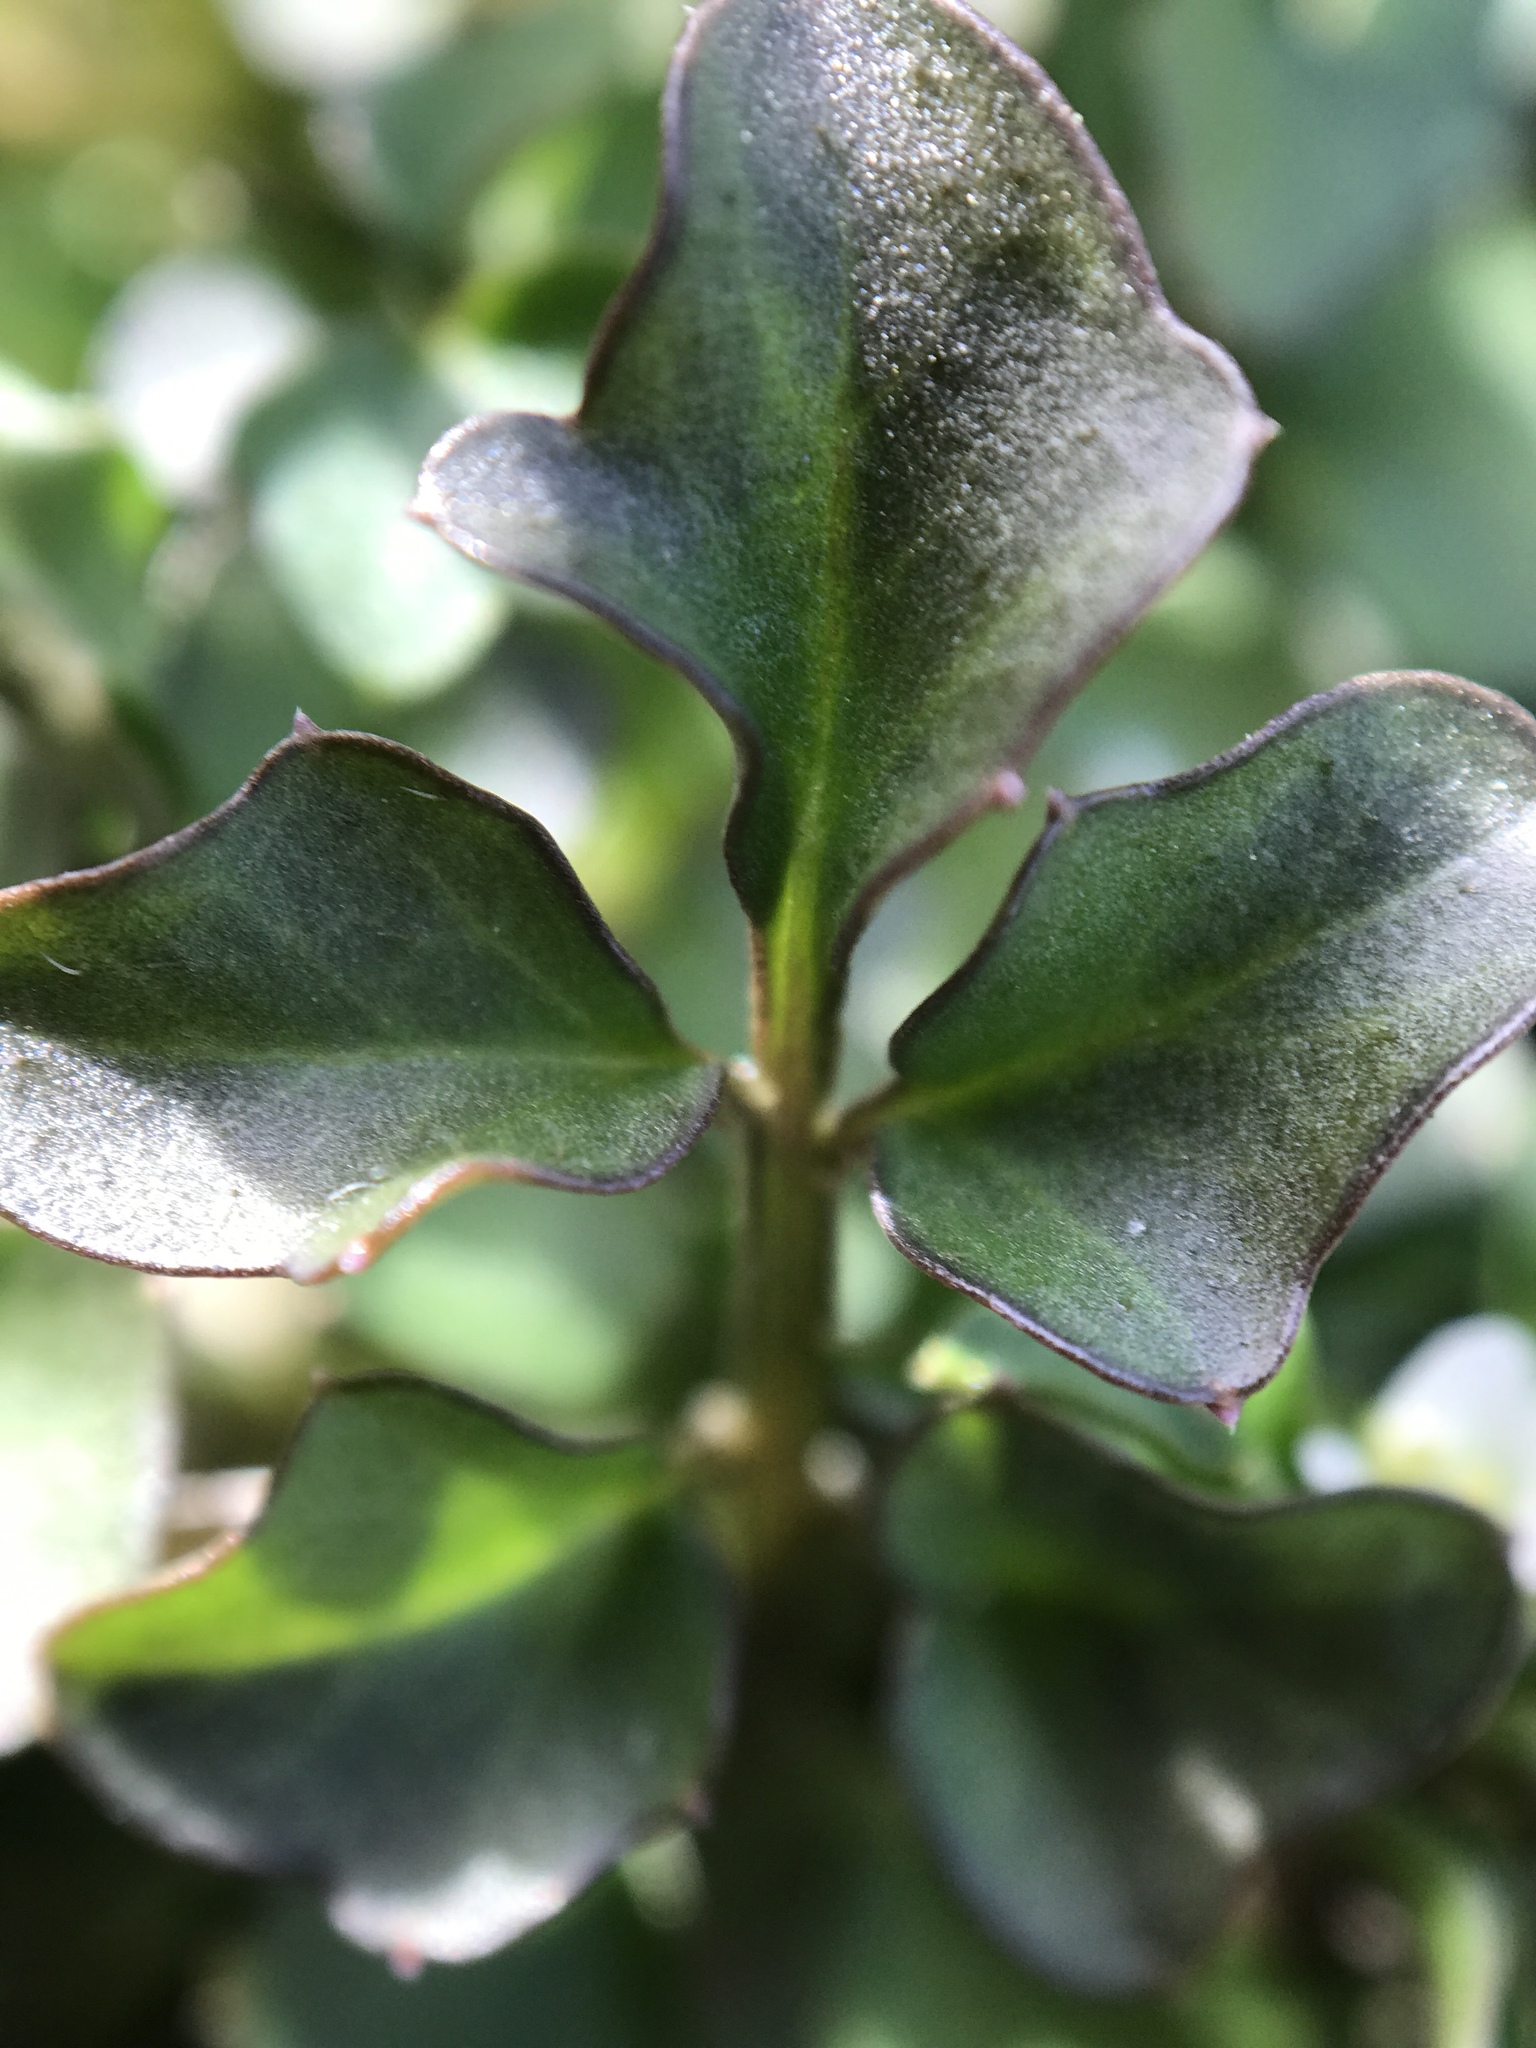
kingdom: Plantae
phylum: Tracheophyta
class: Magnoliopsida
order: Brassicales
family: Brassicaceae
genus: Cardamine
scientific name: Cardamine hirsuta
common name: Hairy bittercress
